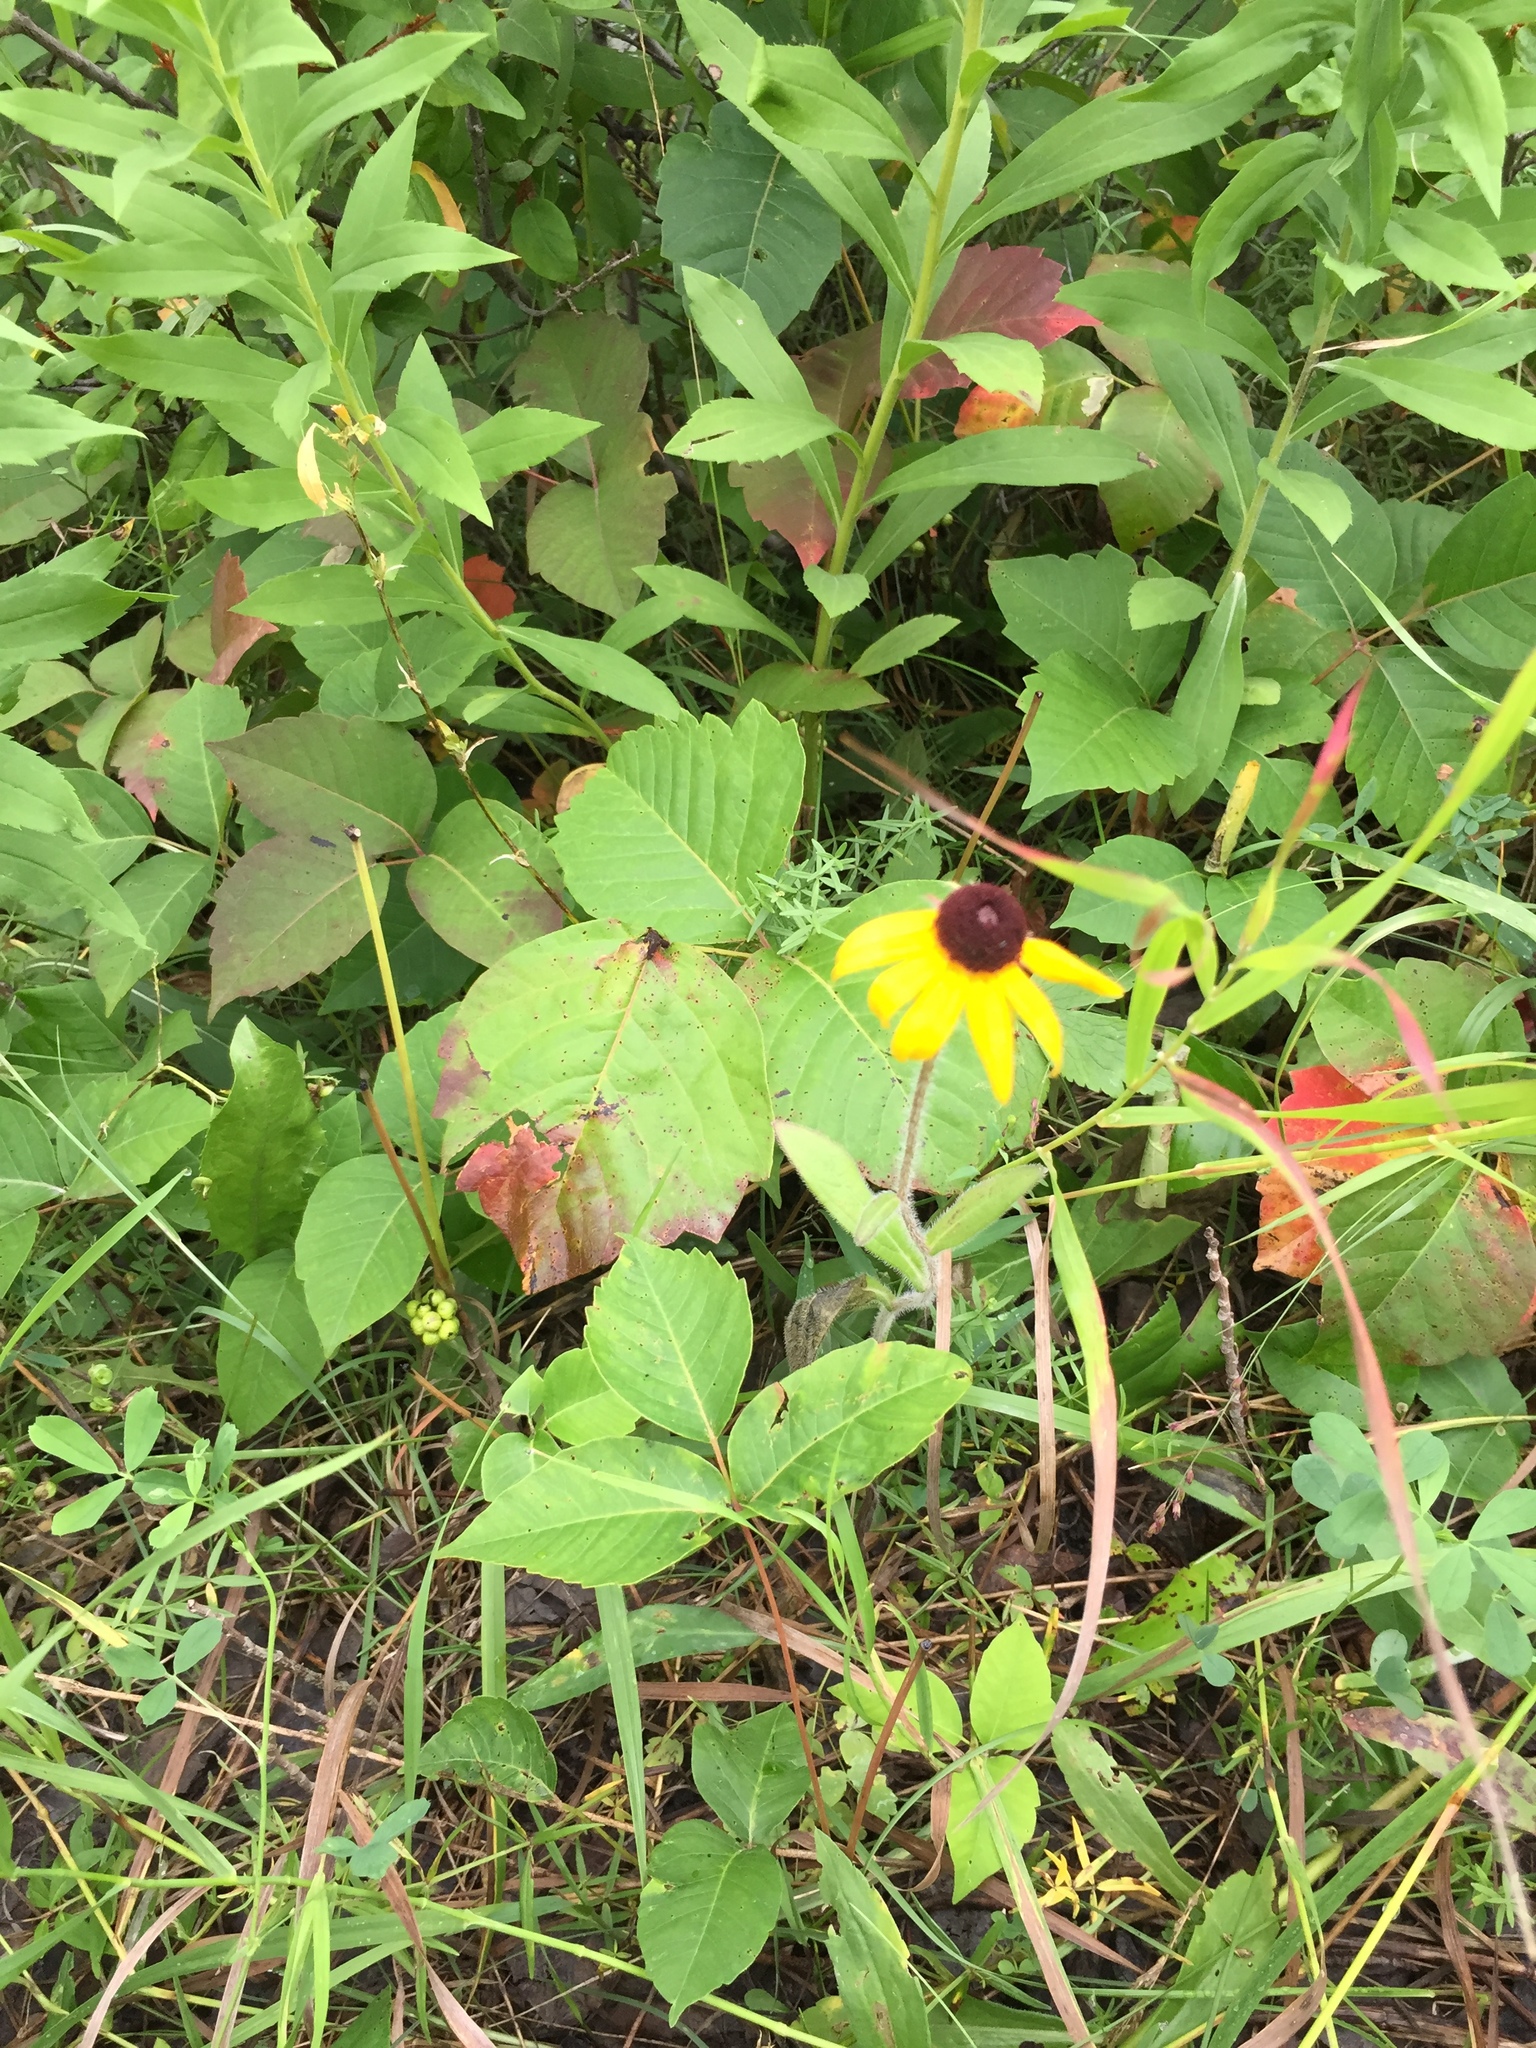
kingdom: Plantae
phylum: Tracheophyta
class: Magnoliopsida
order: Asterales
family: Asteraceae
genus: Rudbeckia
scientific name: Rudbeckia hirta
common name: Black-eyed-susan
